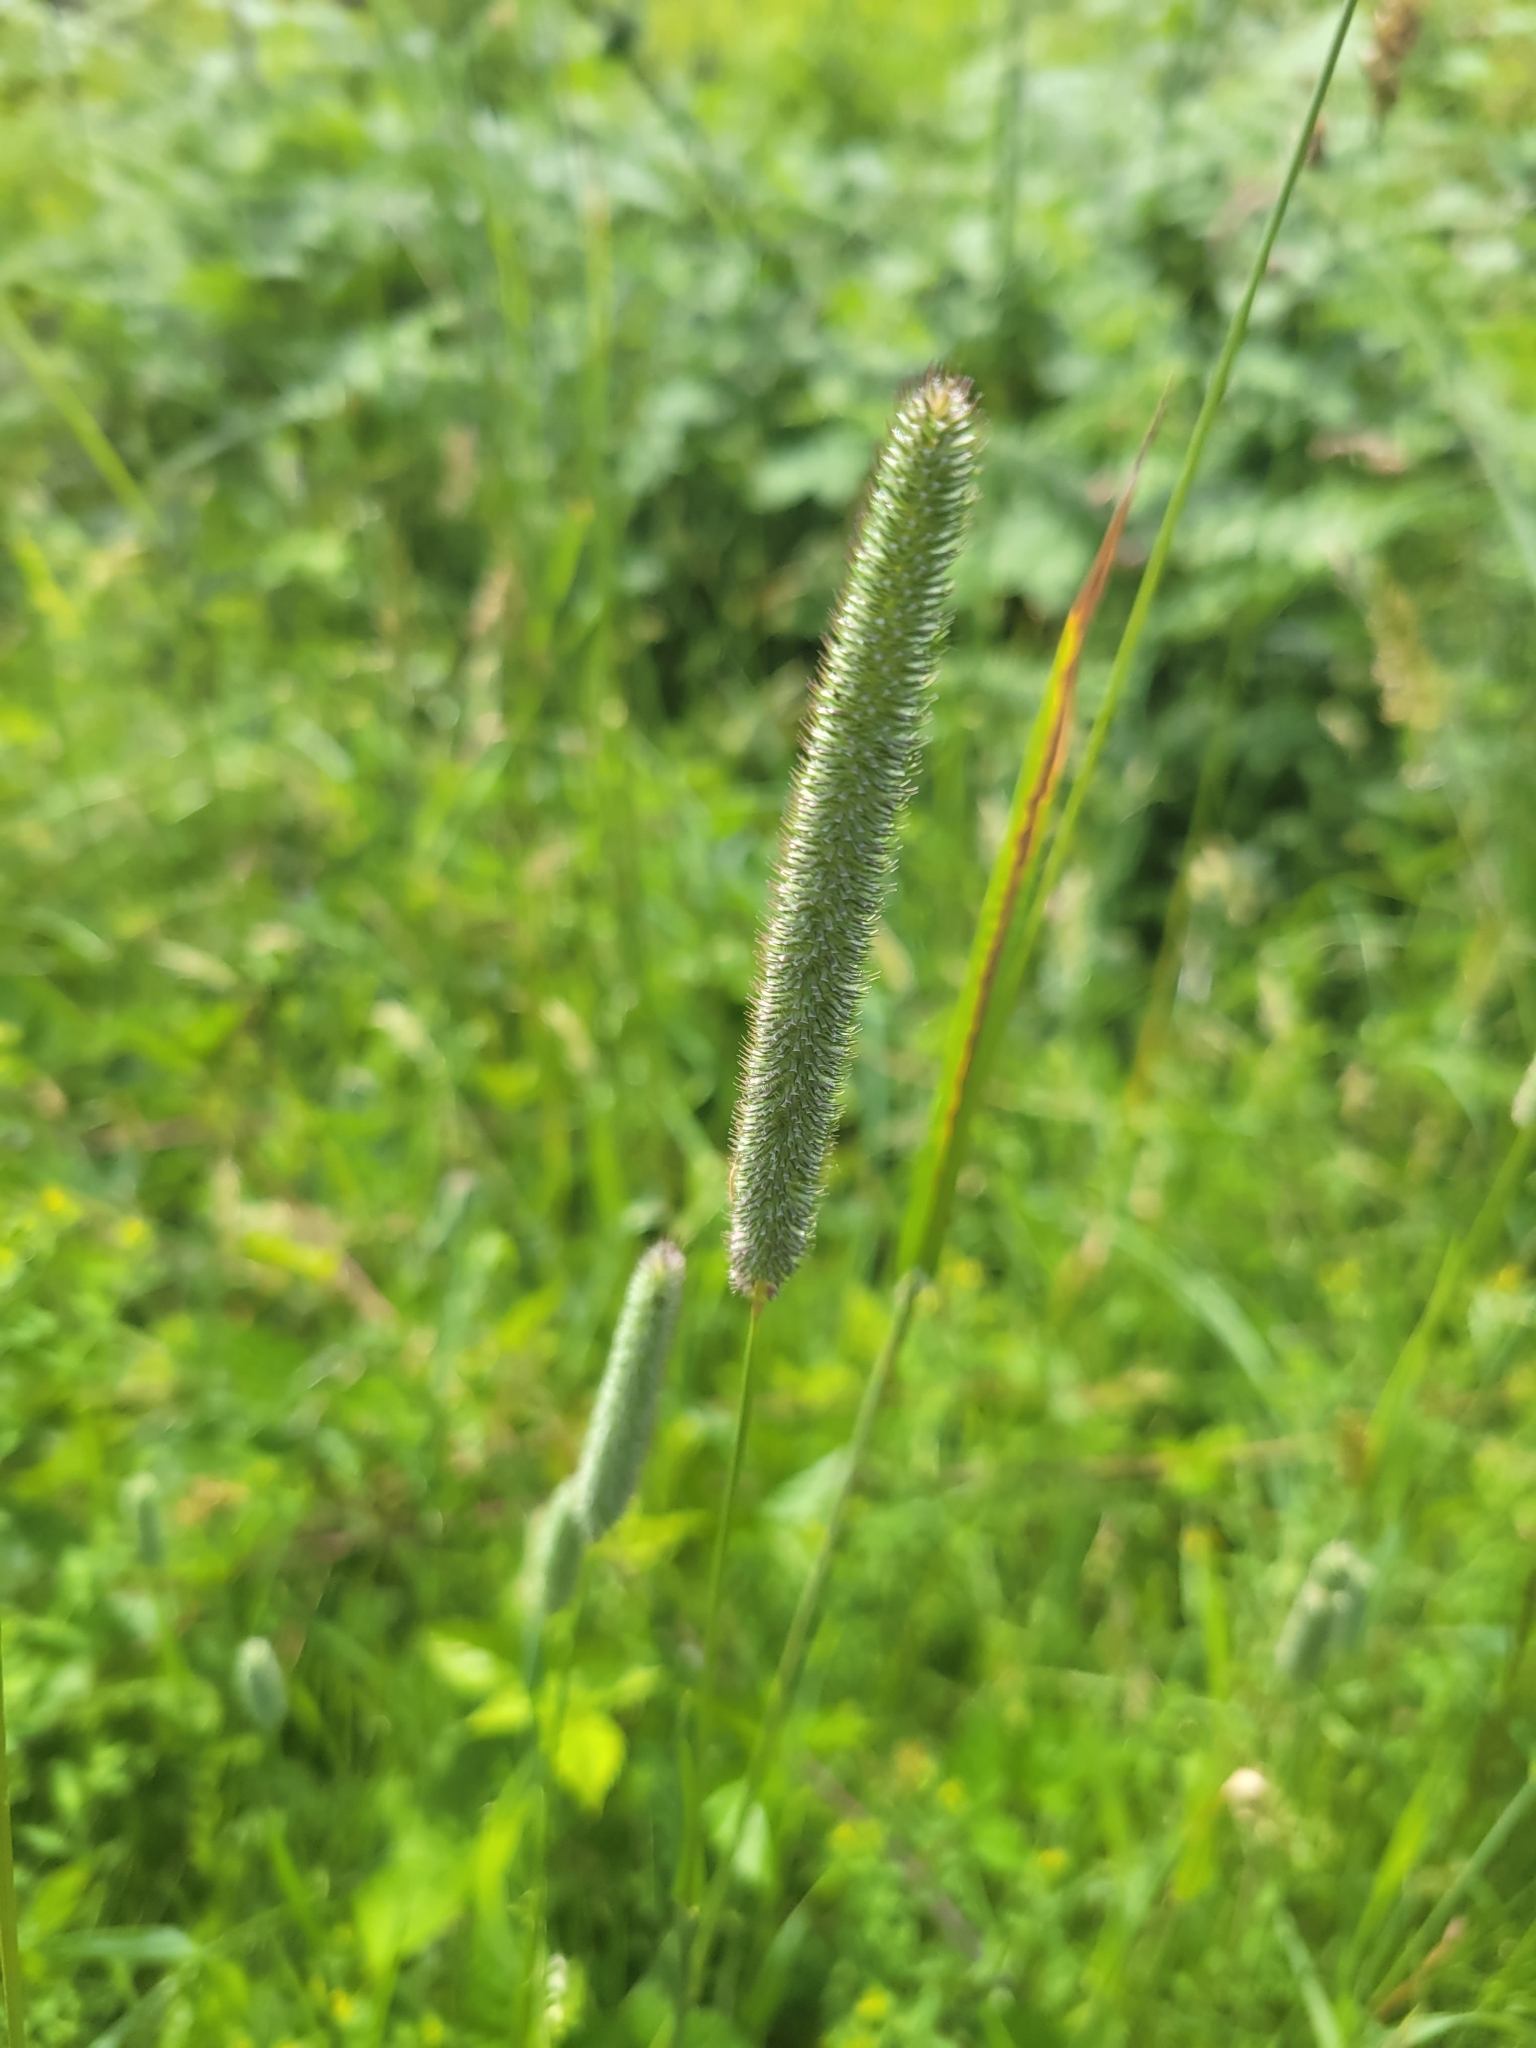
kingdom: Plantae
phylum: Tracheophyta
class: Liliopsida
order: Poales
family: Poaceae
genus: Phleum
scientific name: Phleum pratense
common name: Timothy grass
